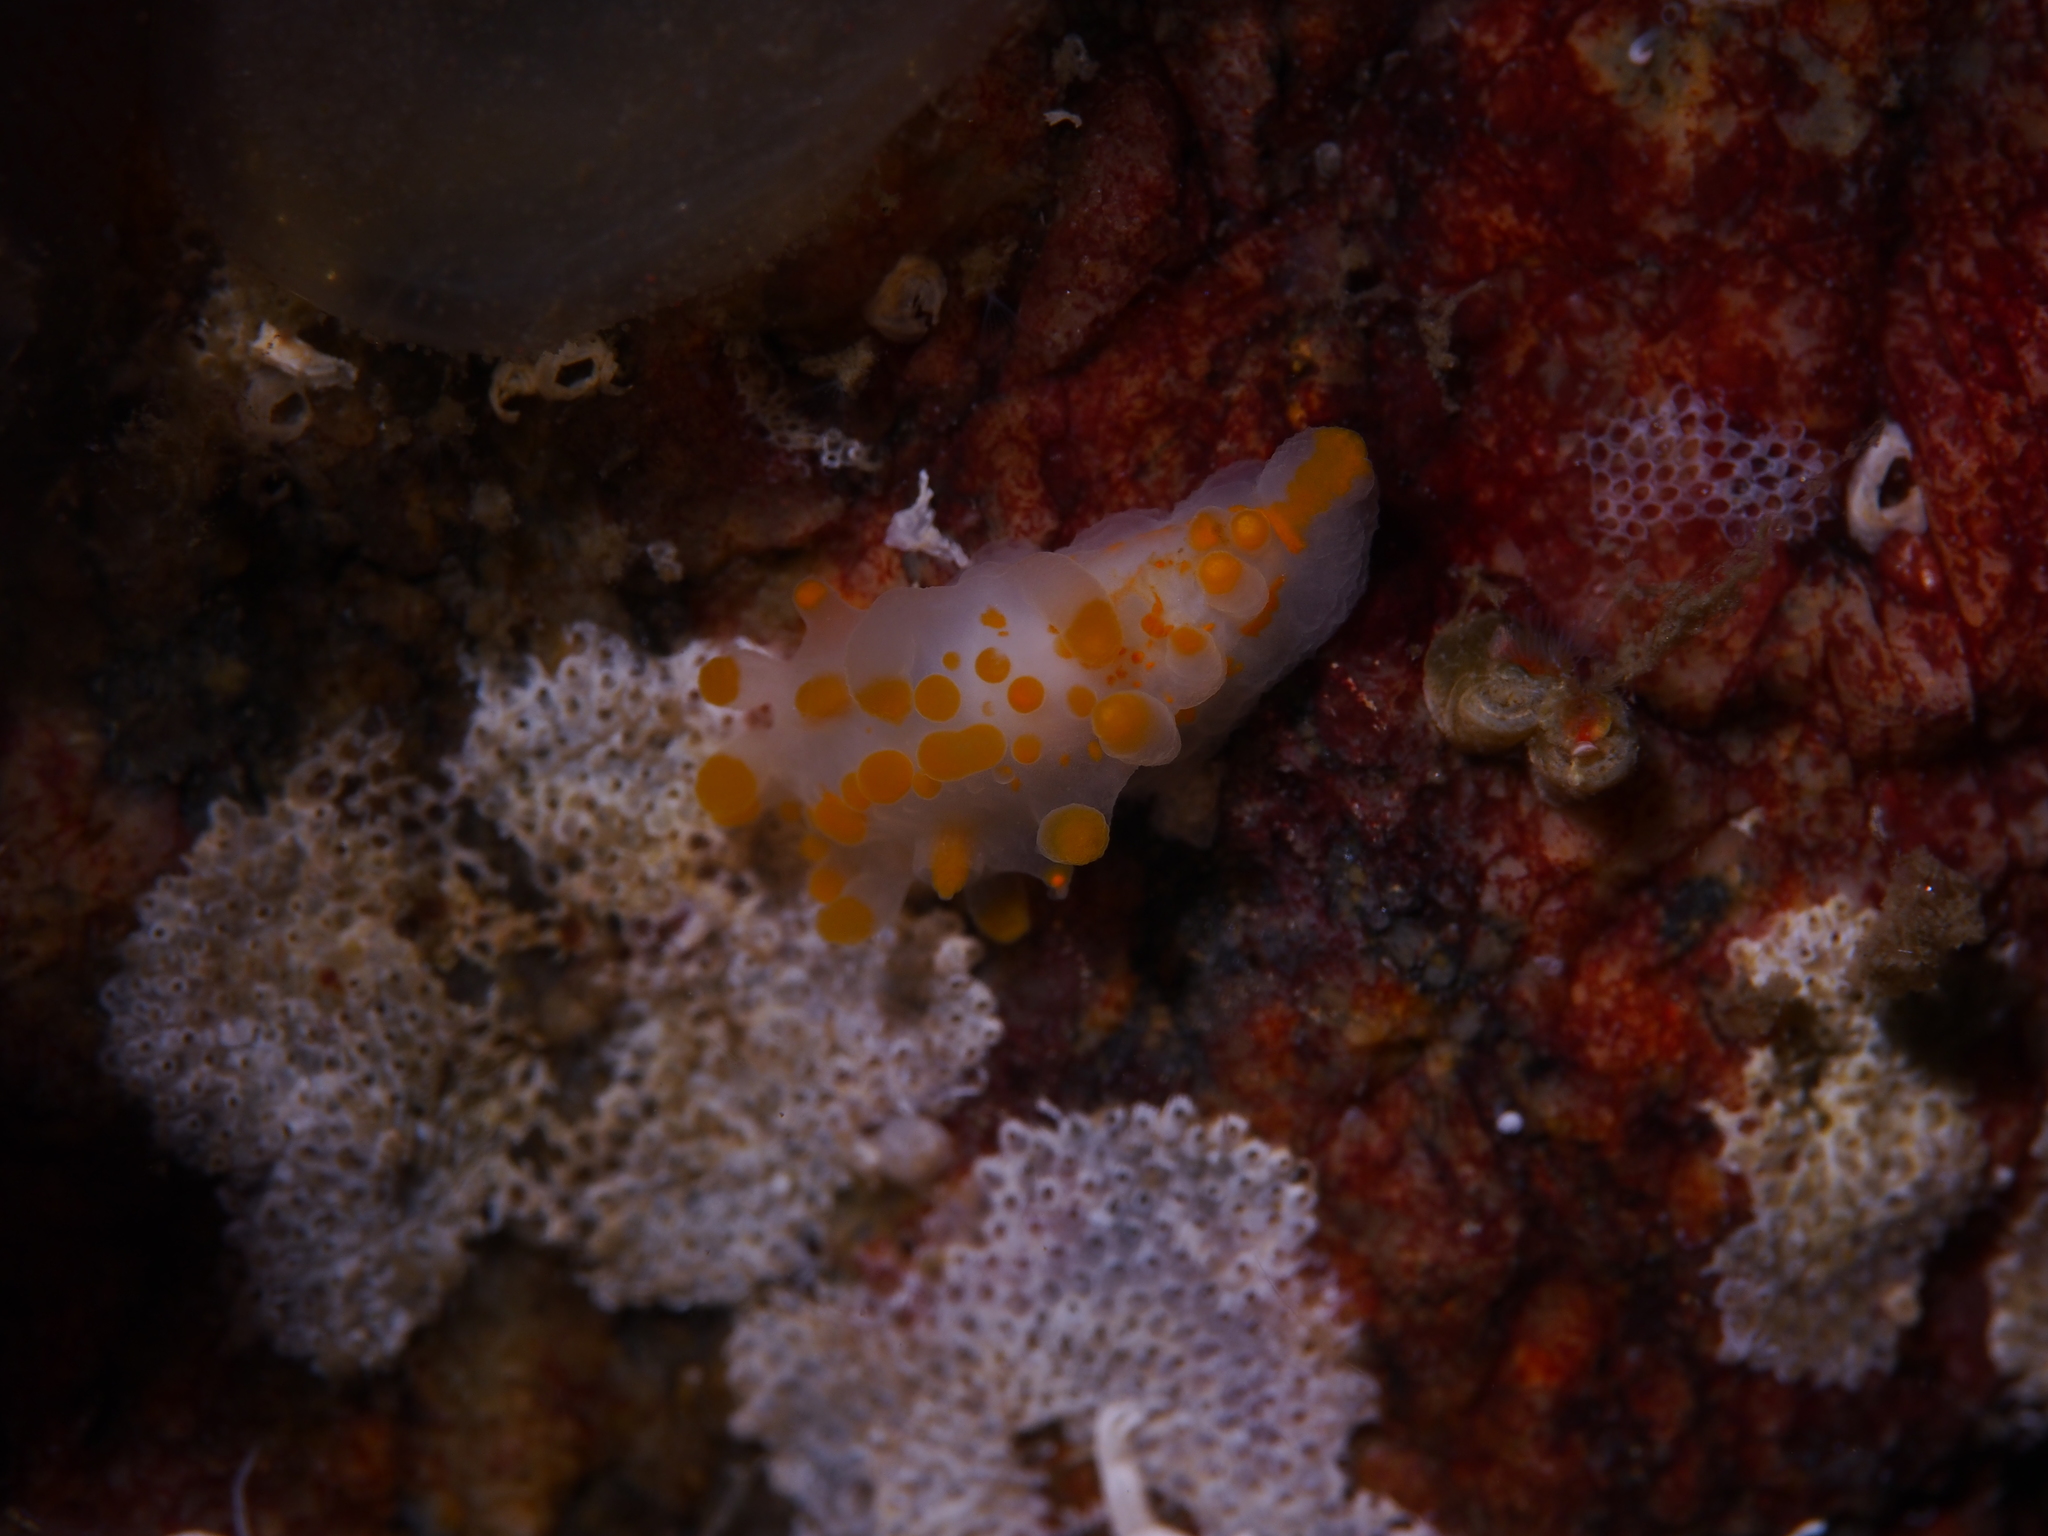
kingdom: Animalia
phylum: Mollusca
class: Gastropoda
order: Nudibranchia
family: Polyceridae
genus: Limacia
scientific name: Limacia clavigera
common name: Orange-clubbed sea slug
